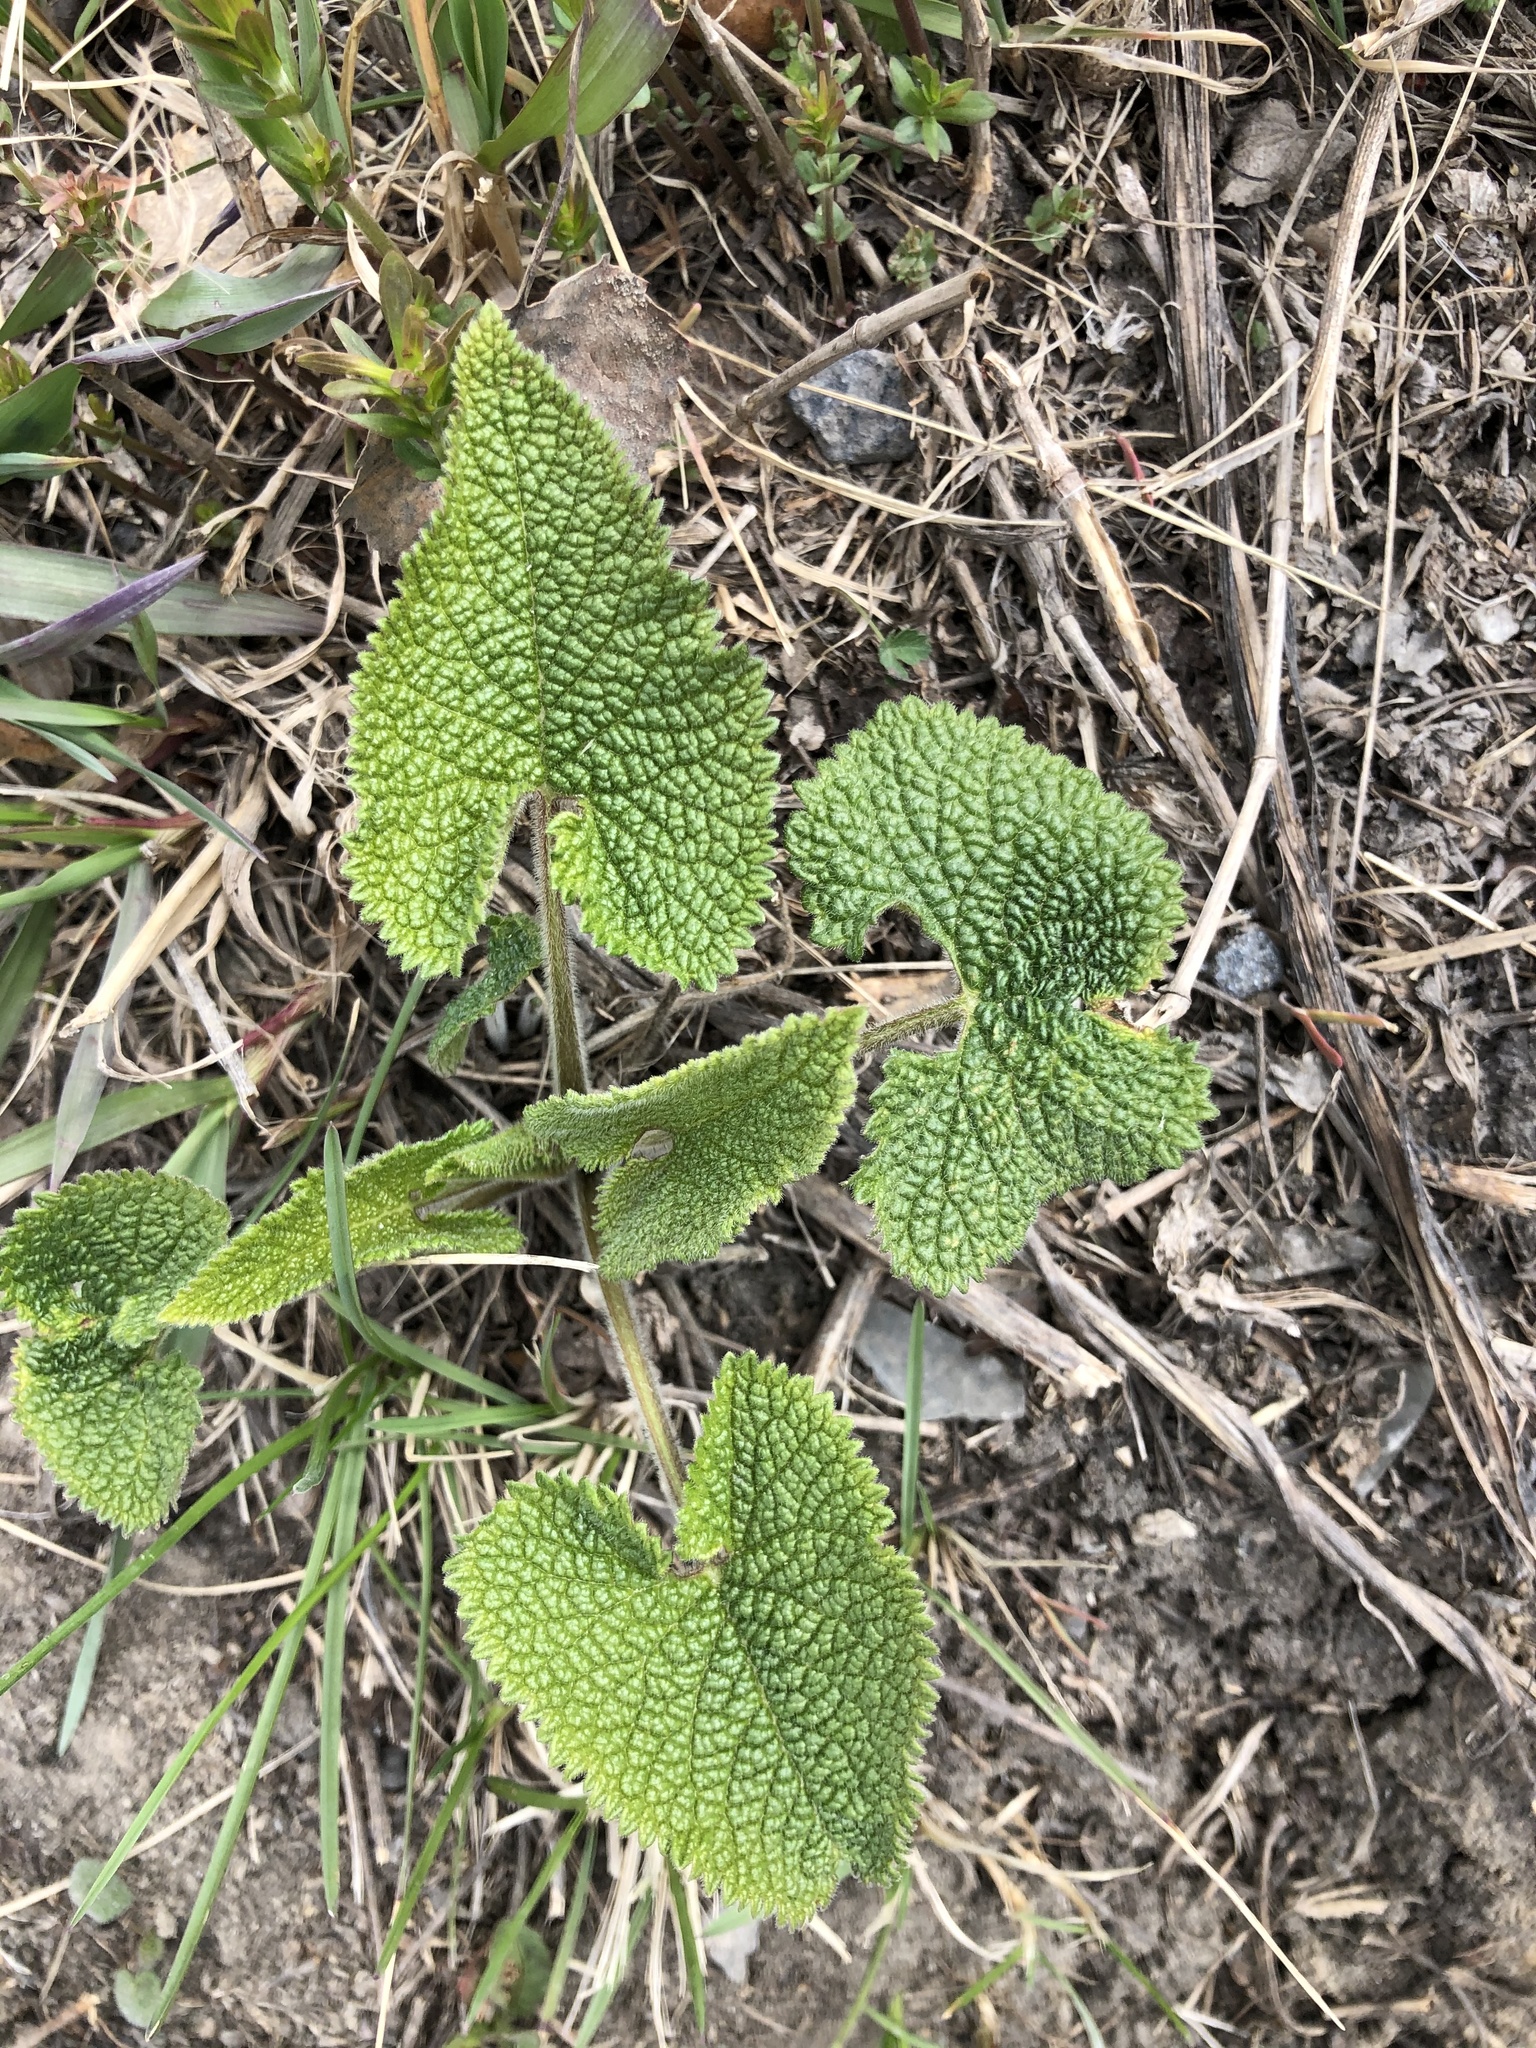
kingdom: Plantae
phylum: Tracheophyta
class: Magnoliopsida
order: Lamiales
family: Lamiaceae
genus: Phlomoides
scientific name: Phlomoides tuberosa
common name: Tuberous jerusalem sage
